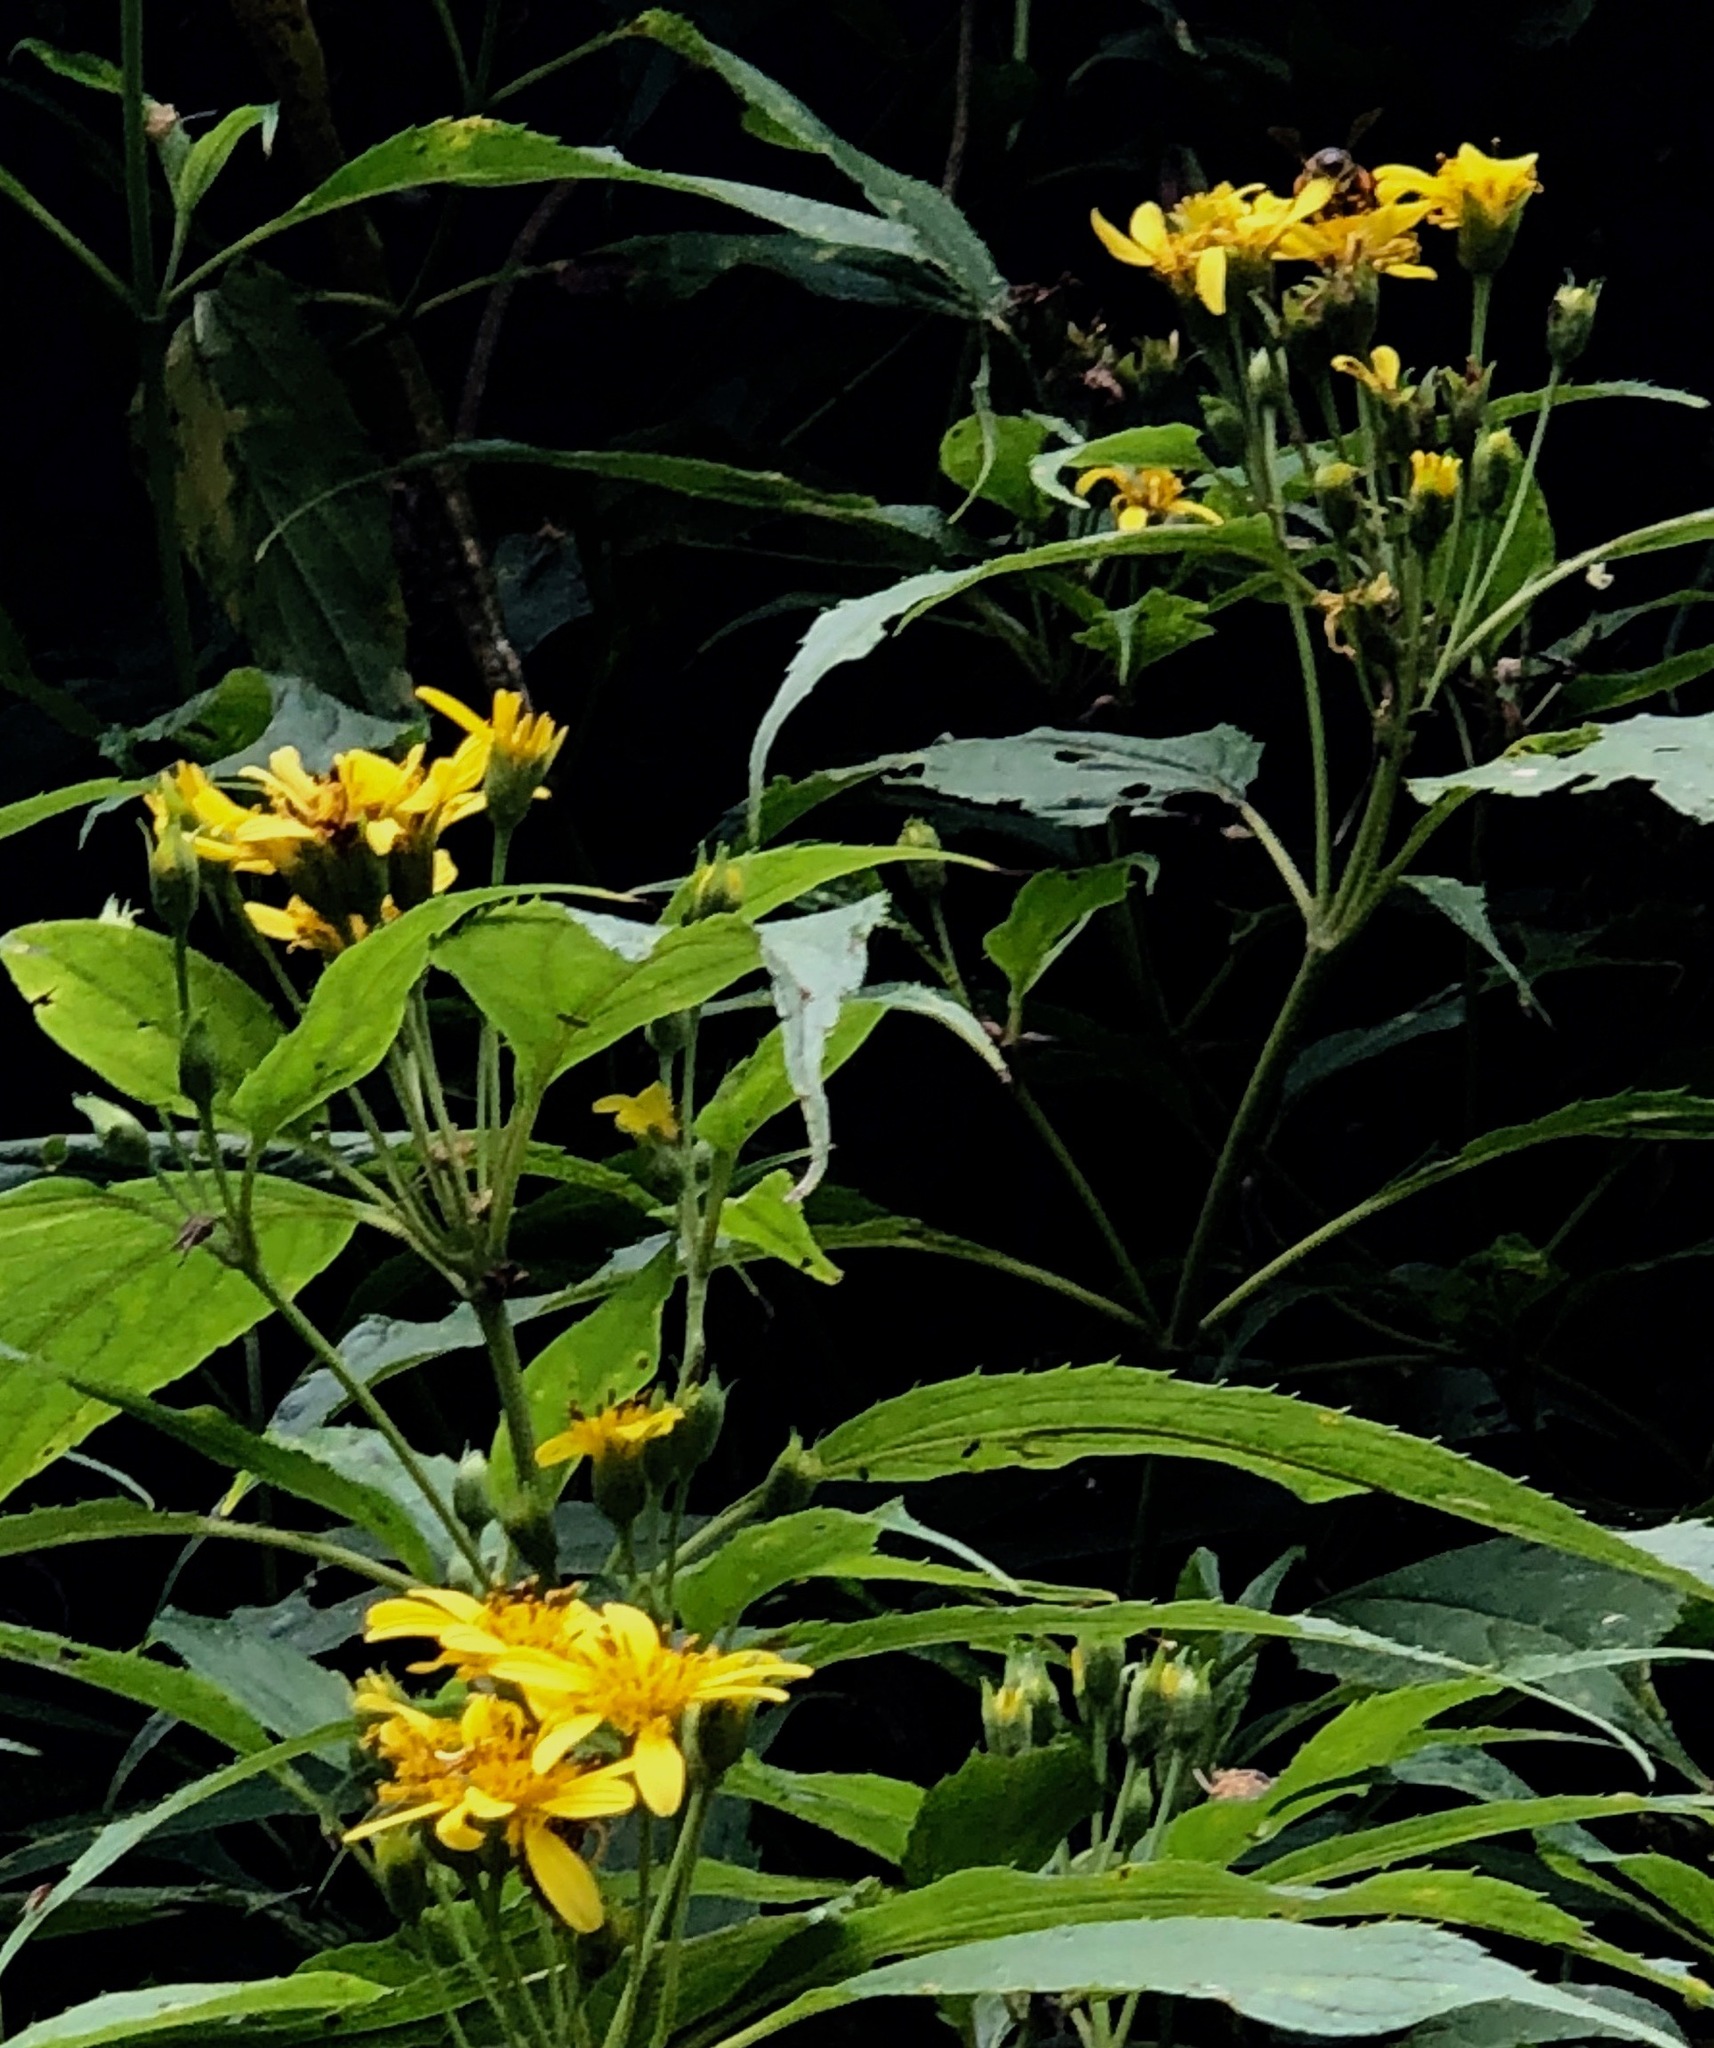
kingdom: Plantae
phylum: Tracheophyta
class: Magnoliopsida
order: Asterales
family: Asteraceae
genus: Oyedaea
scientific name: Oyedaea verbesinoides
